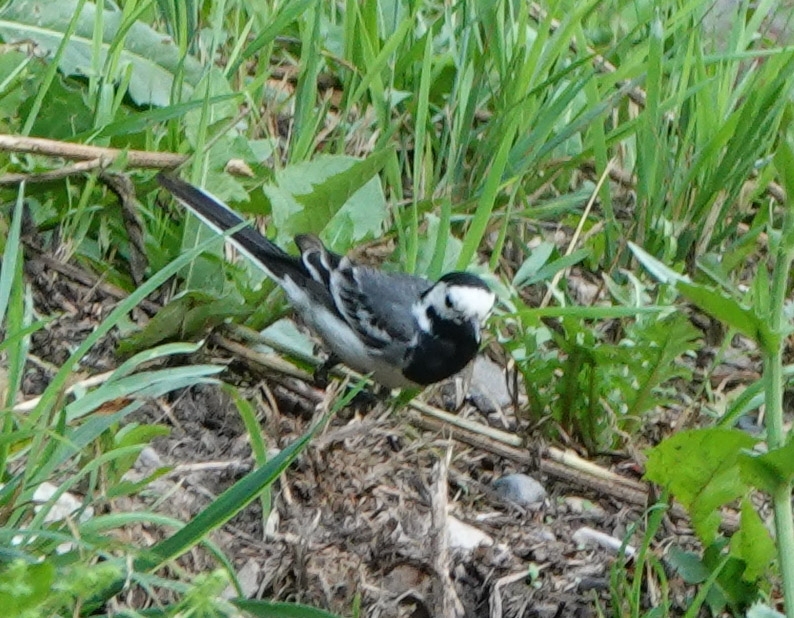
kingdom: Animalia
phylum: Chordata
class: Aves
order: Passeriformes
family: Motacillidae
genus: Motacilla
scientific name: Motacilla alba
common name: White wagtail
